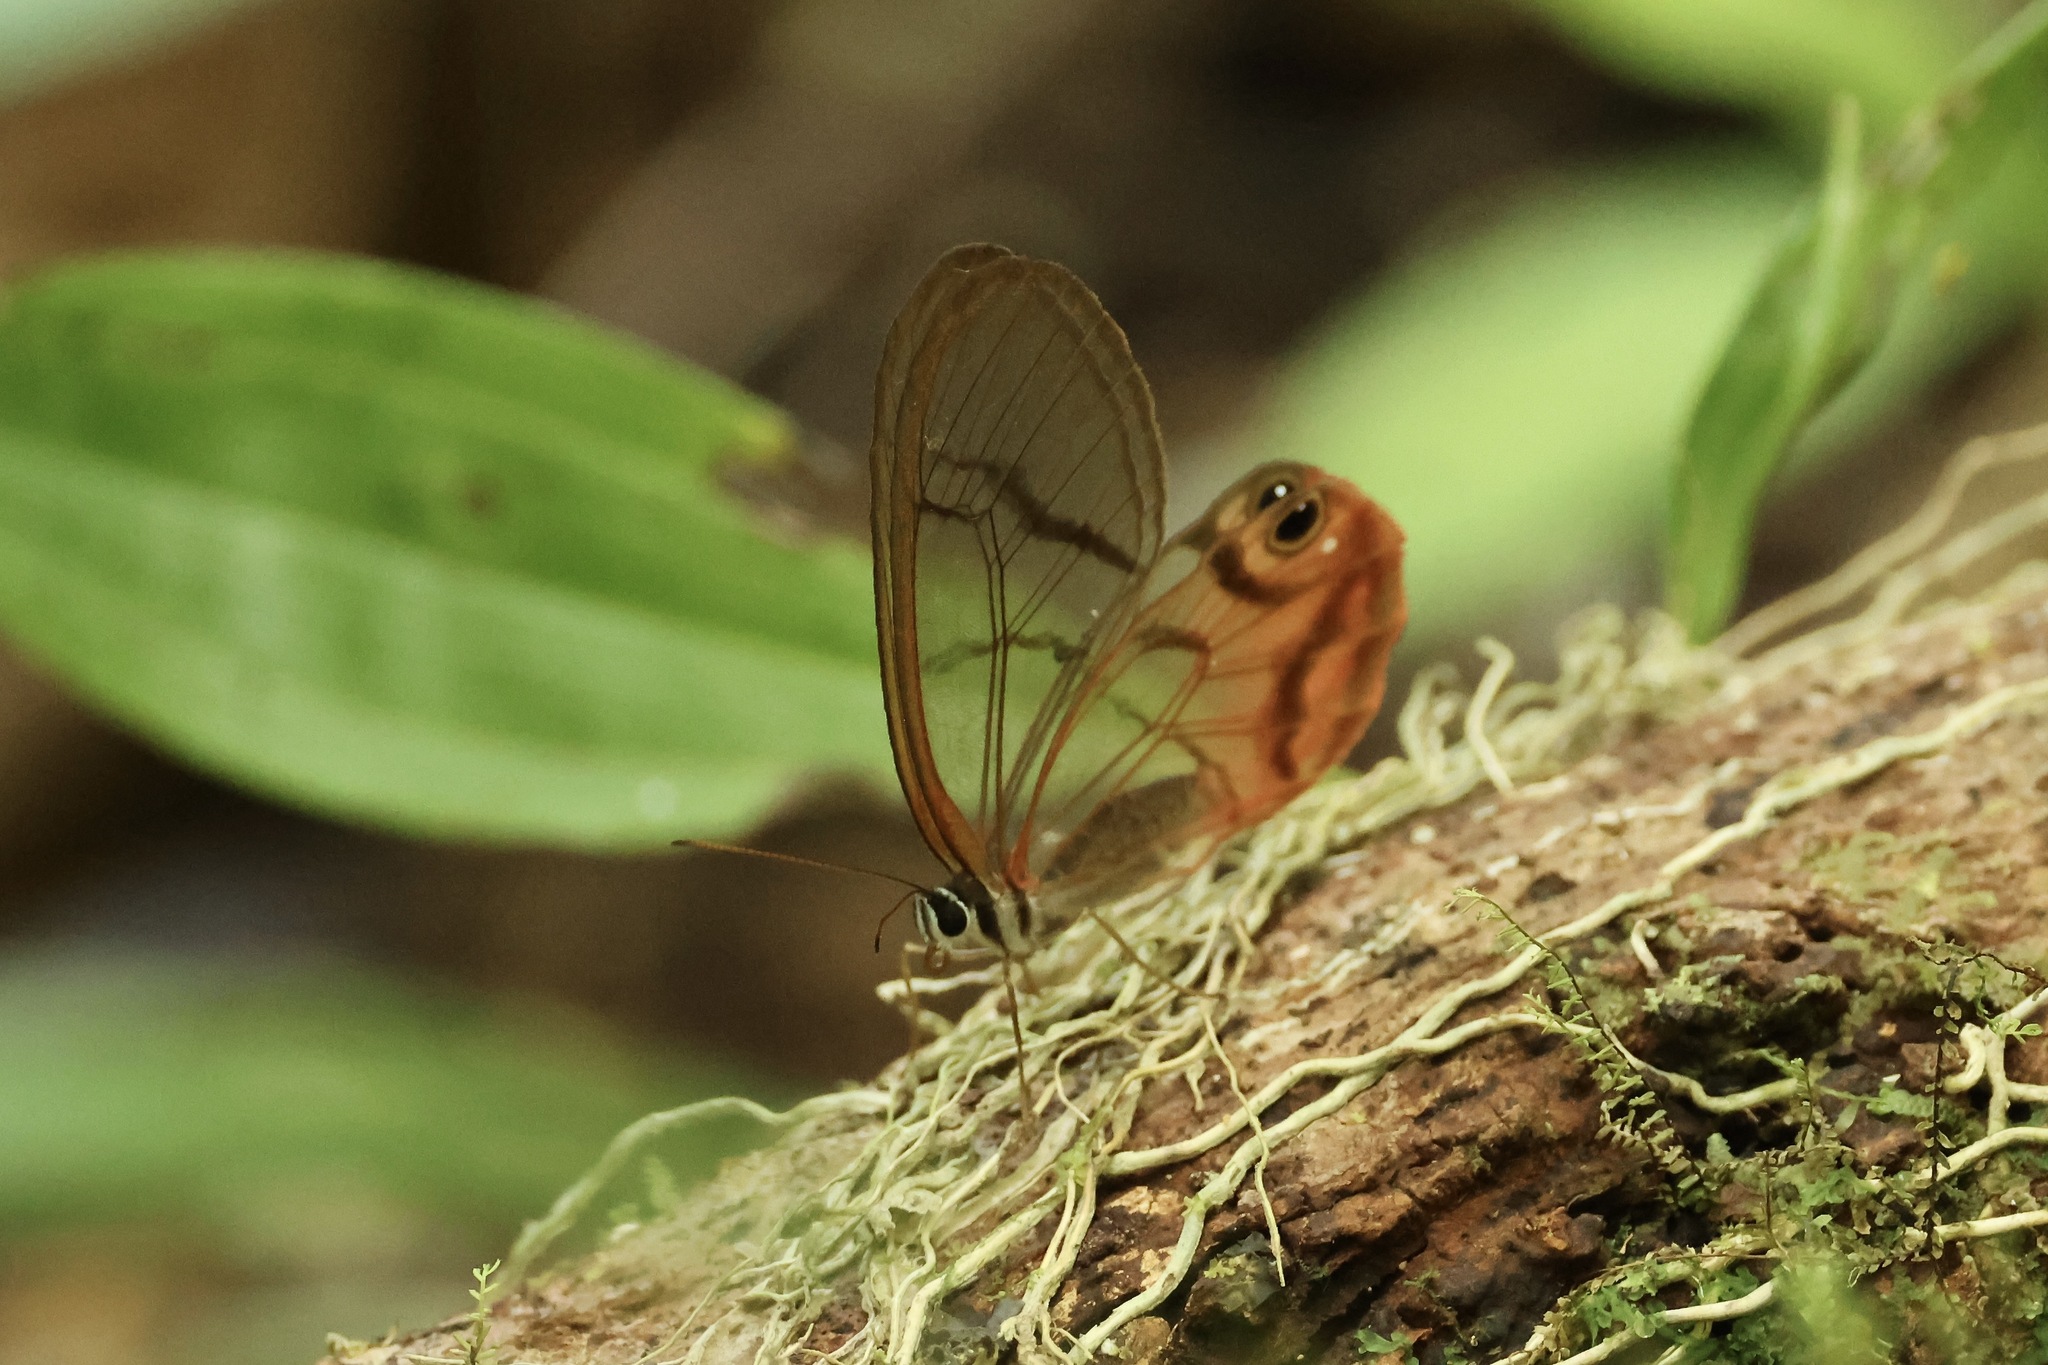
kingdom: Animalia
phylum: Arthropoda
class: Insecta
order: Lepidoptera
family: Nymphalidae
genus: Cithaerias
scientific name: Cithaerias pireta
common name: Rusted clearwing-satyr
